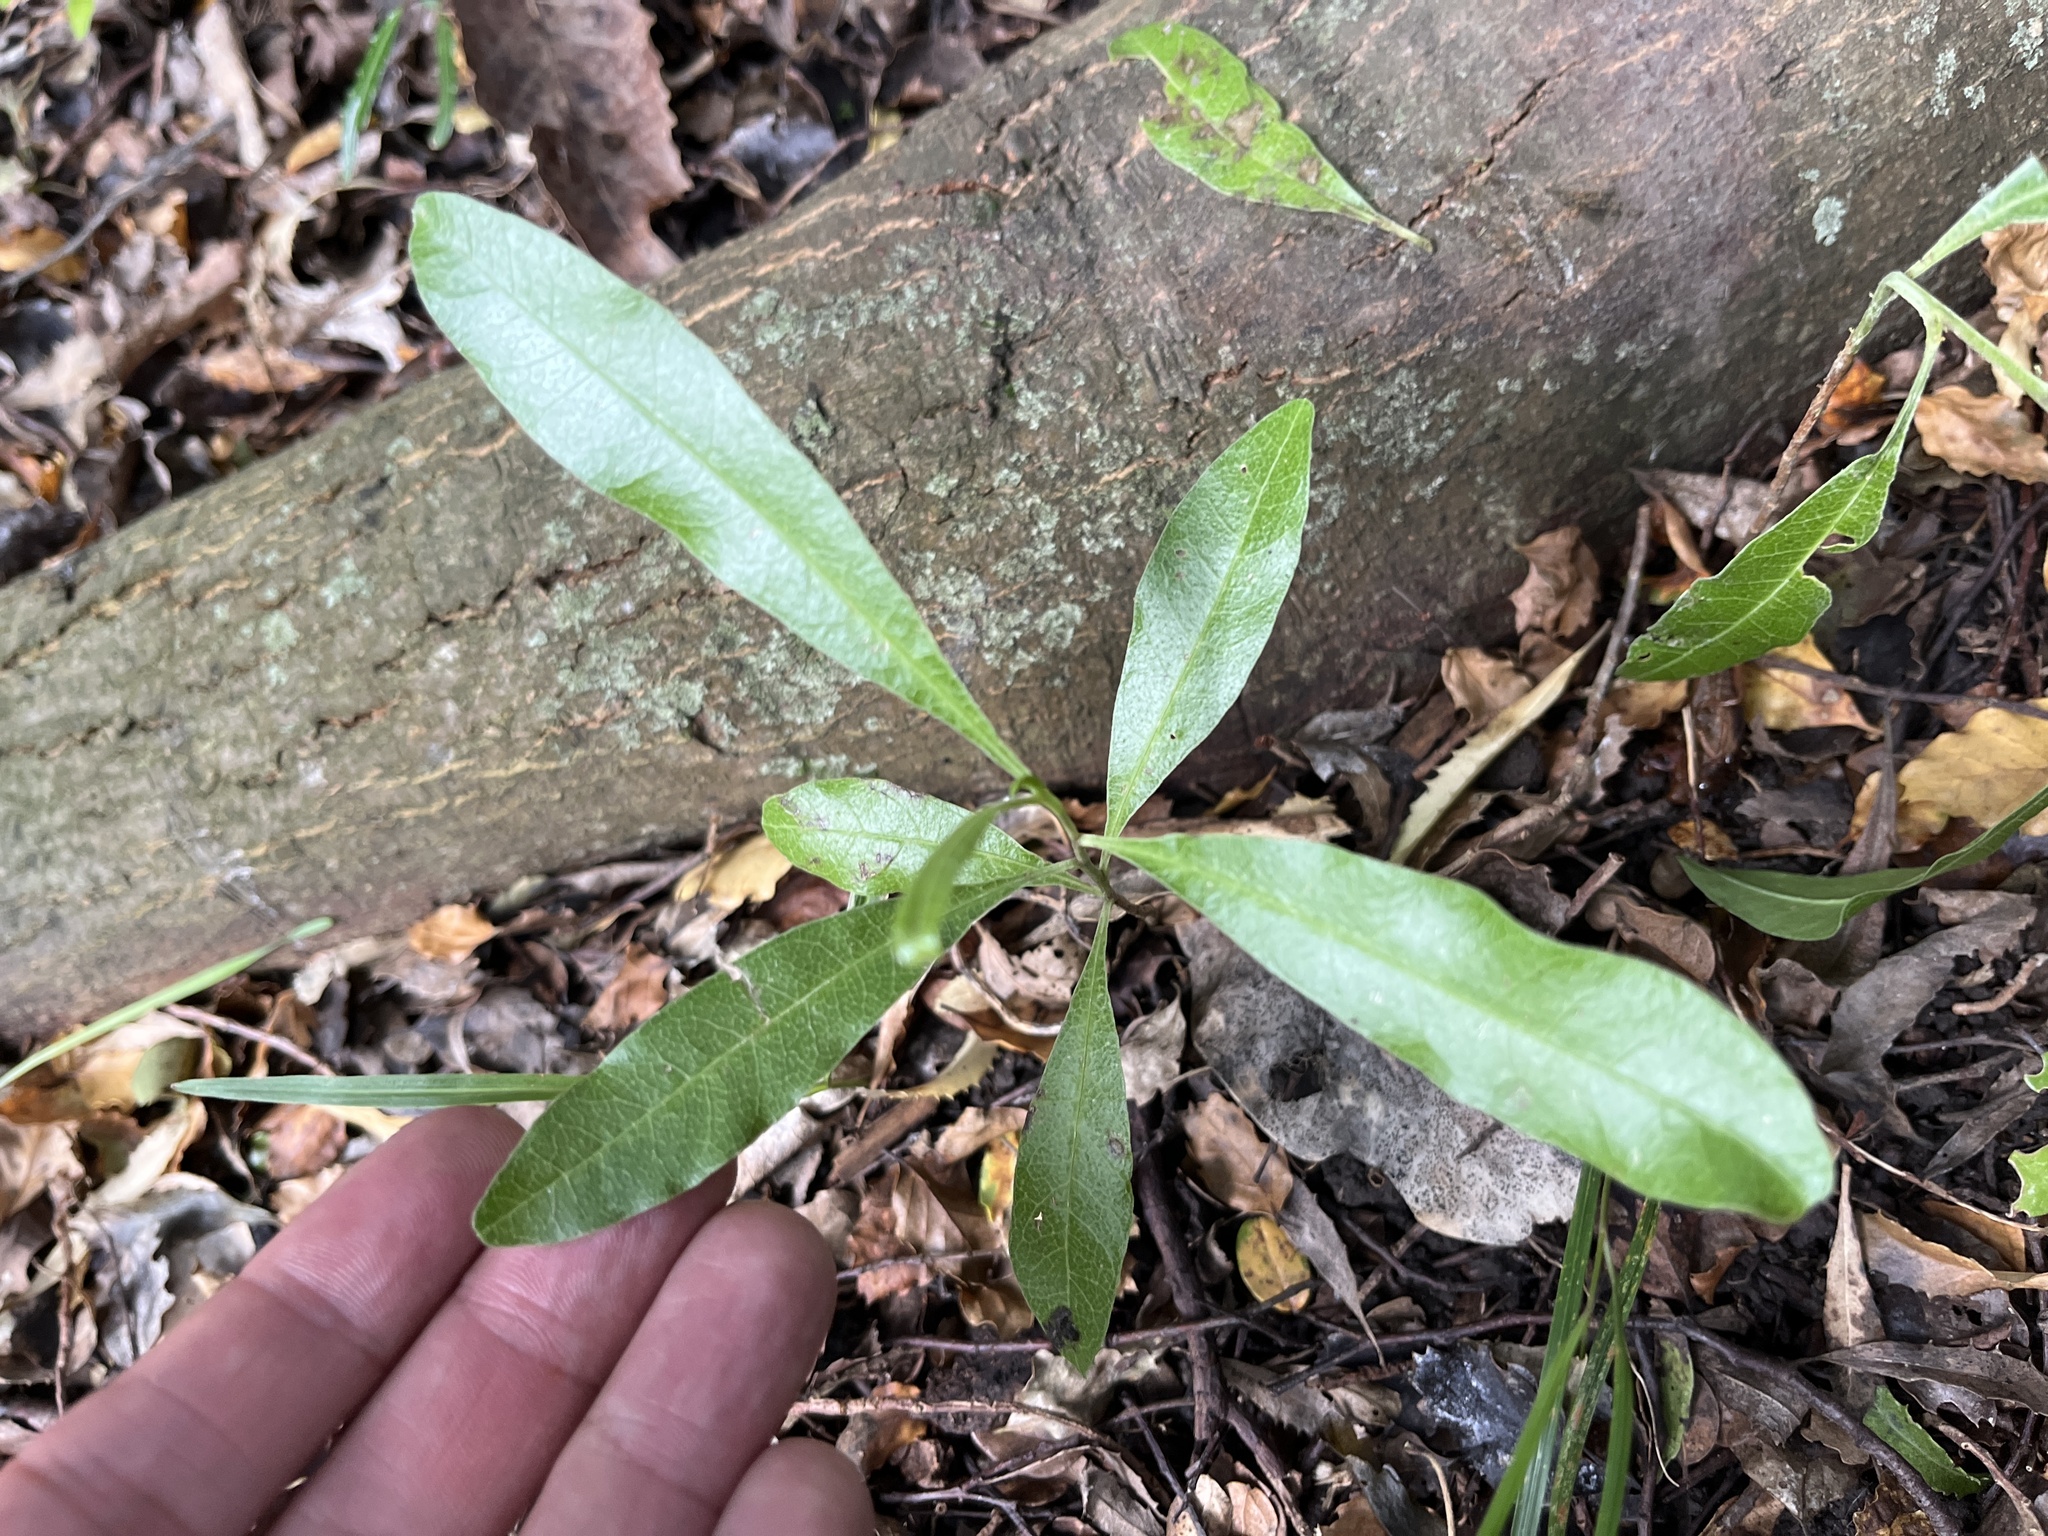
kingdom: Plantae
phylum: Tracheophyta
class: Magnoliopsida
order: Sapindales
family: Sapindaceae
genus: Dodonaea
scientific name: Dodonaea viscosa
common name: Hopbush
